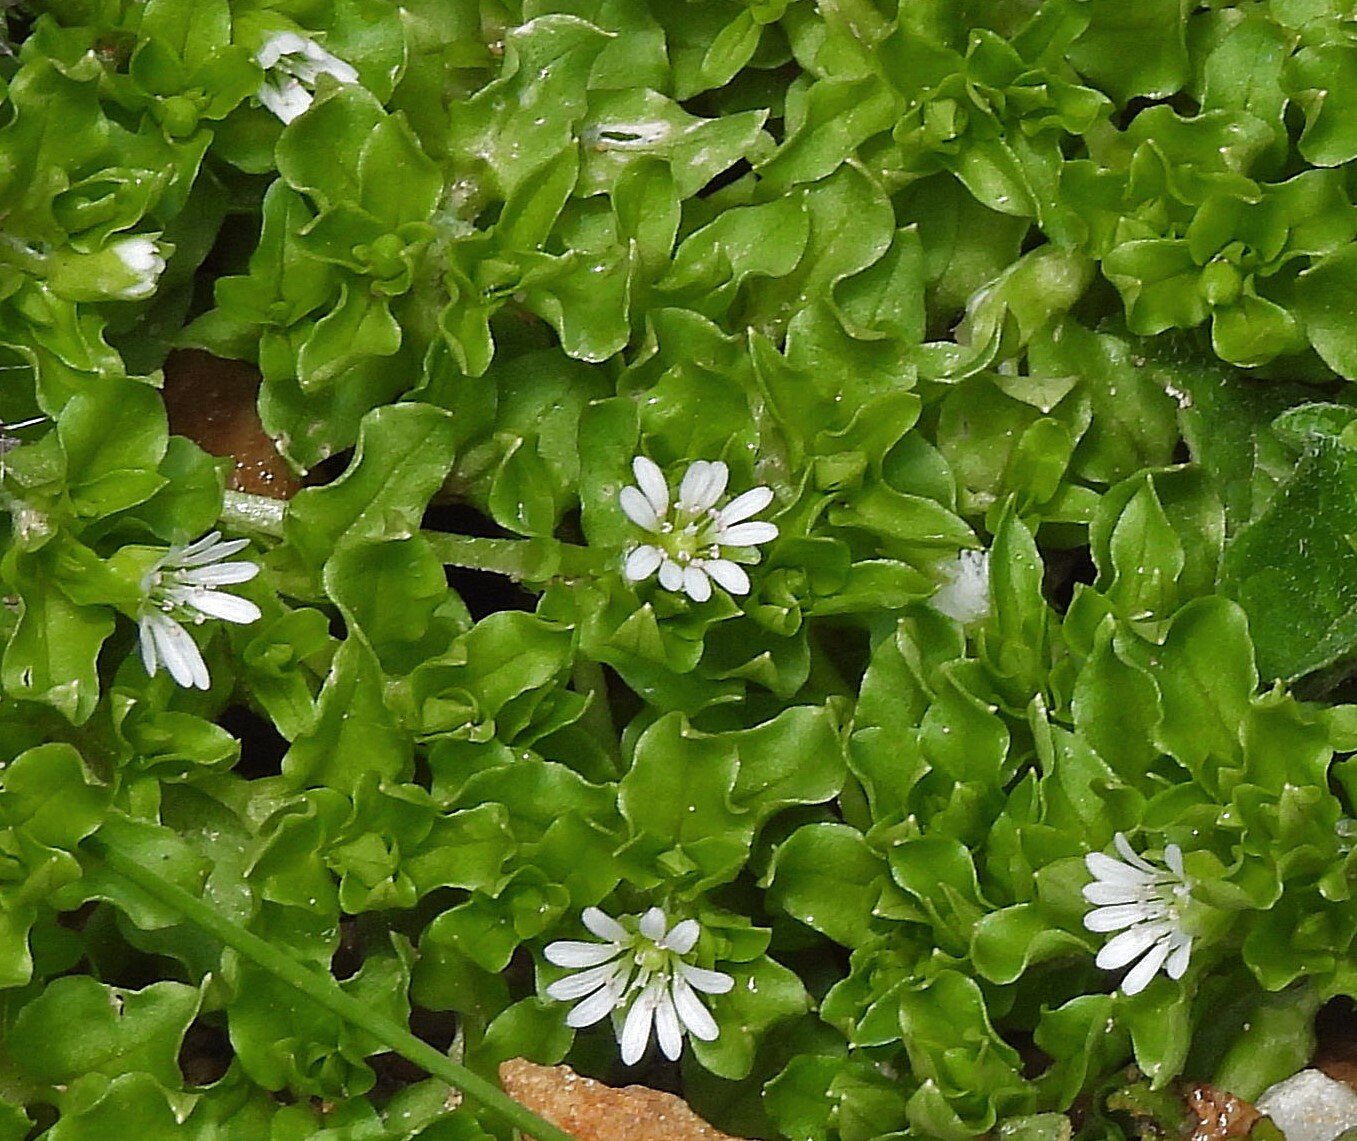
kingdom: Plantae
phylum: Tracheophyta
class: Magnoliopsida
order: Caryophyllales
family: Caryophyllaceae
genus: Stellaria
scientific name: Stellaria weddellii
